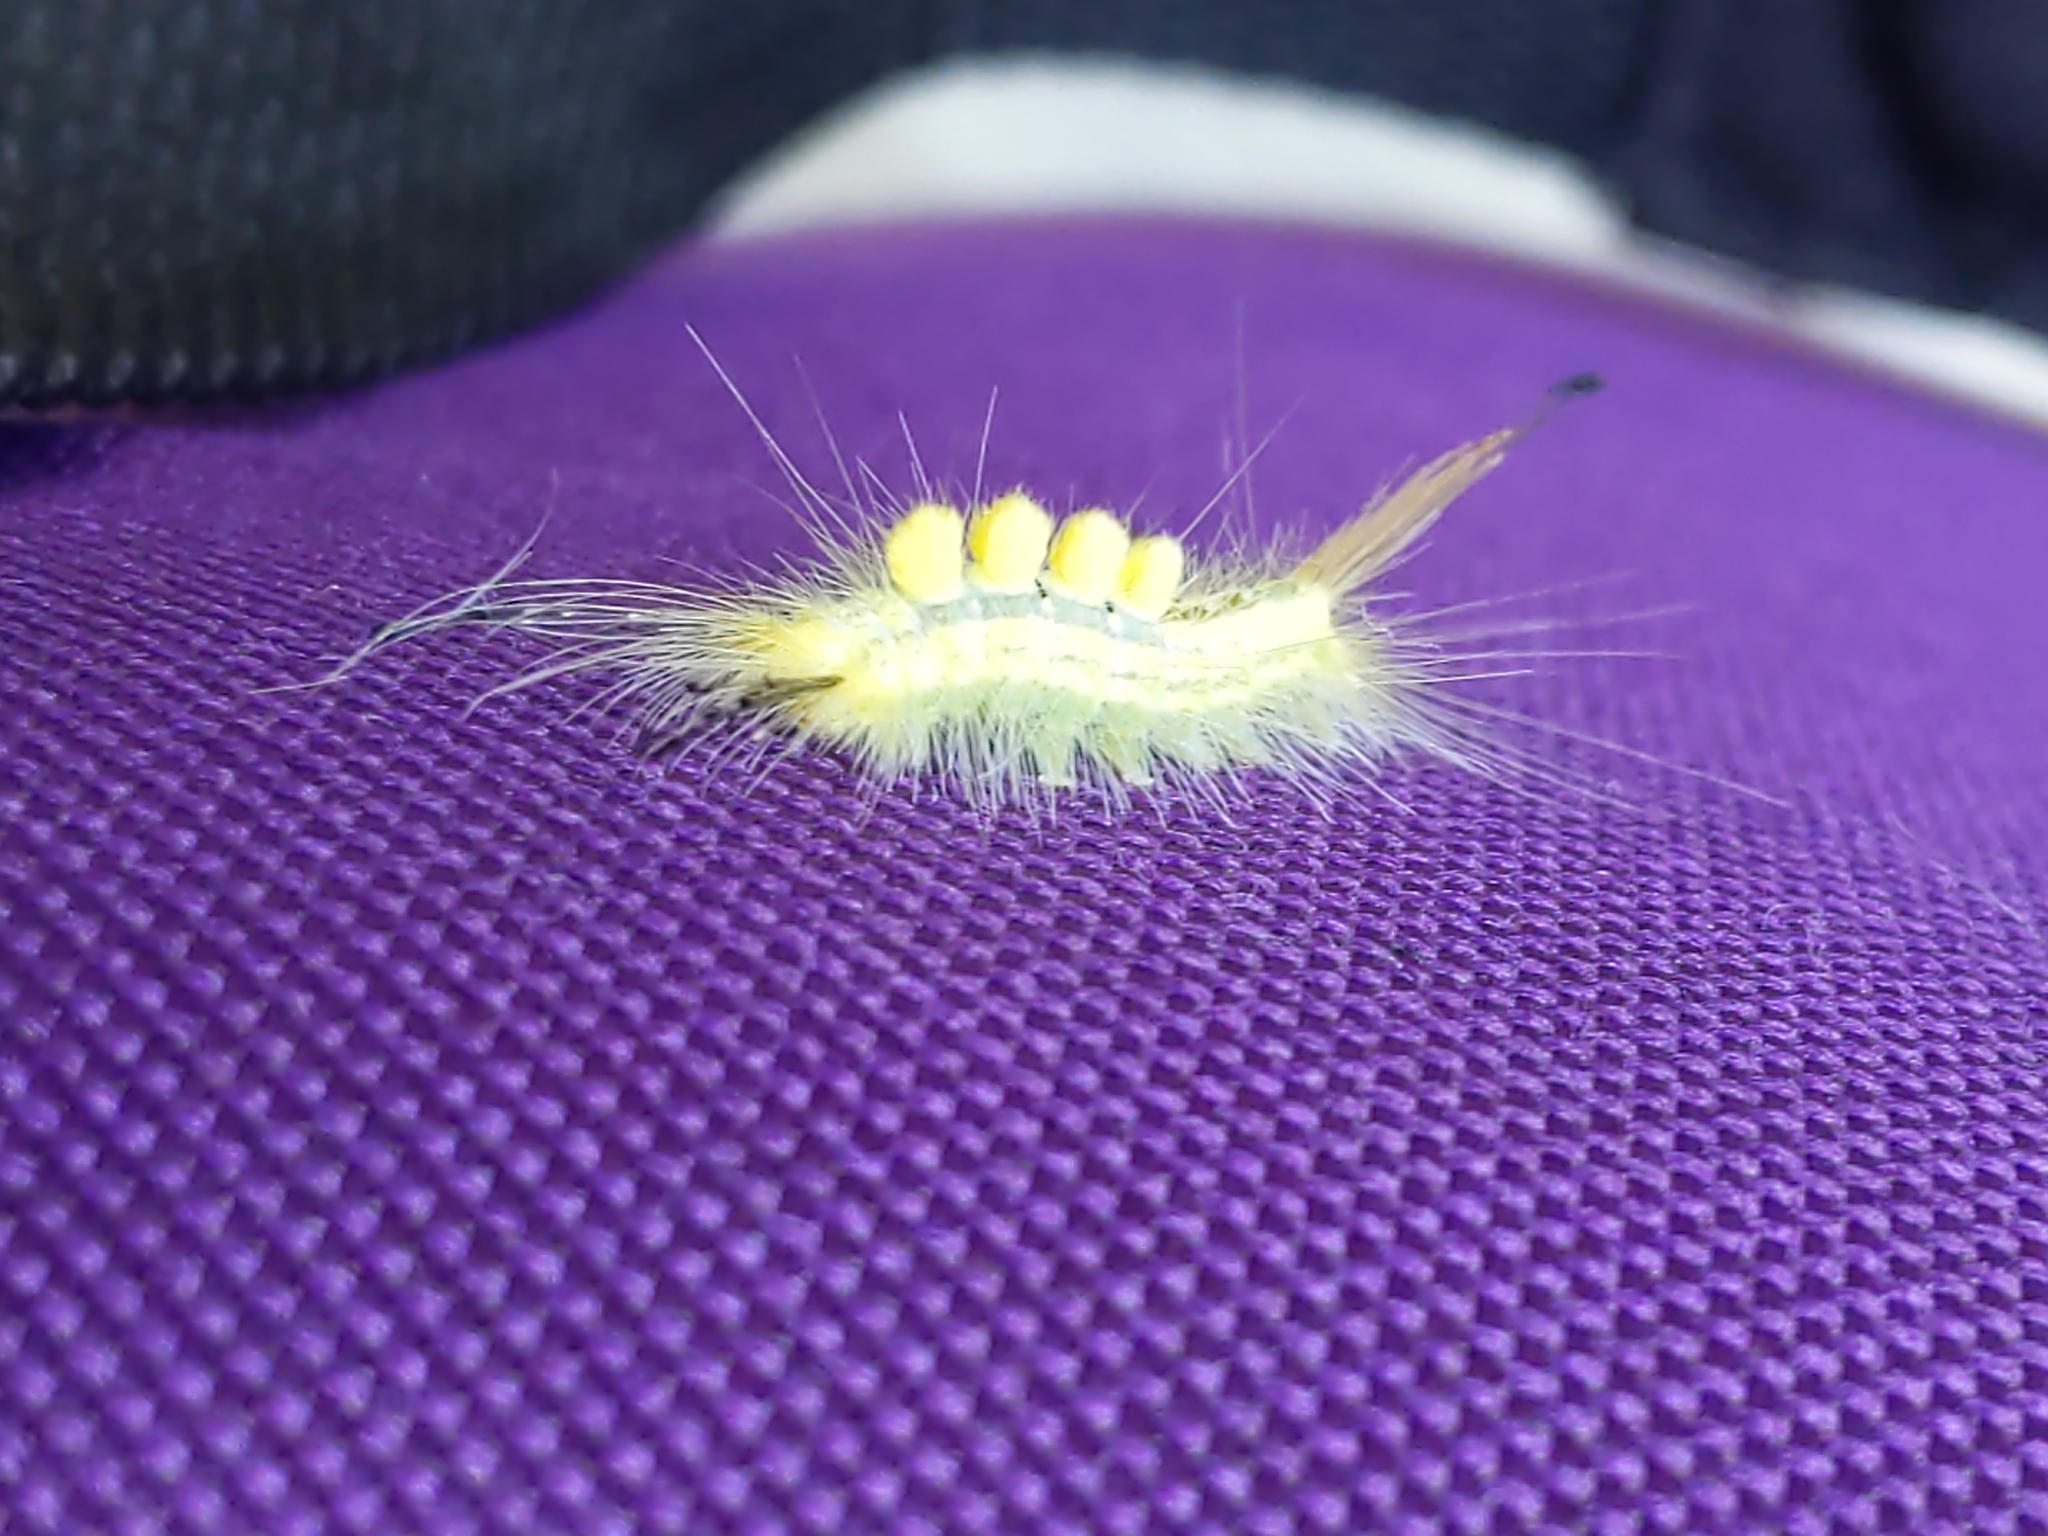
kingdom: Animalia
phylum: Arthropoda
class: Insecta
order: Lepidoptera
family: Erebidae
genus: Orgyia
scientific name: Orgyia definita
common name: Definite tussock moth
